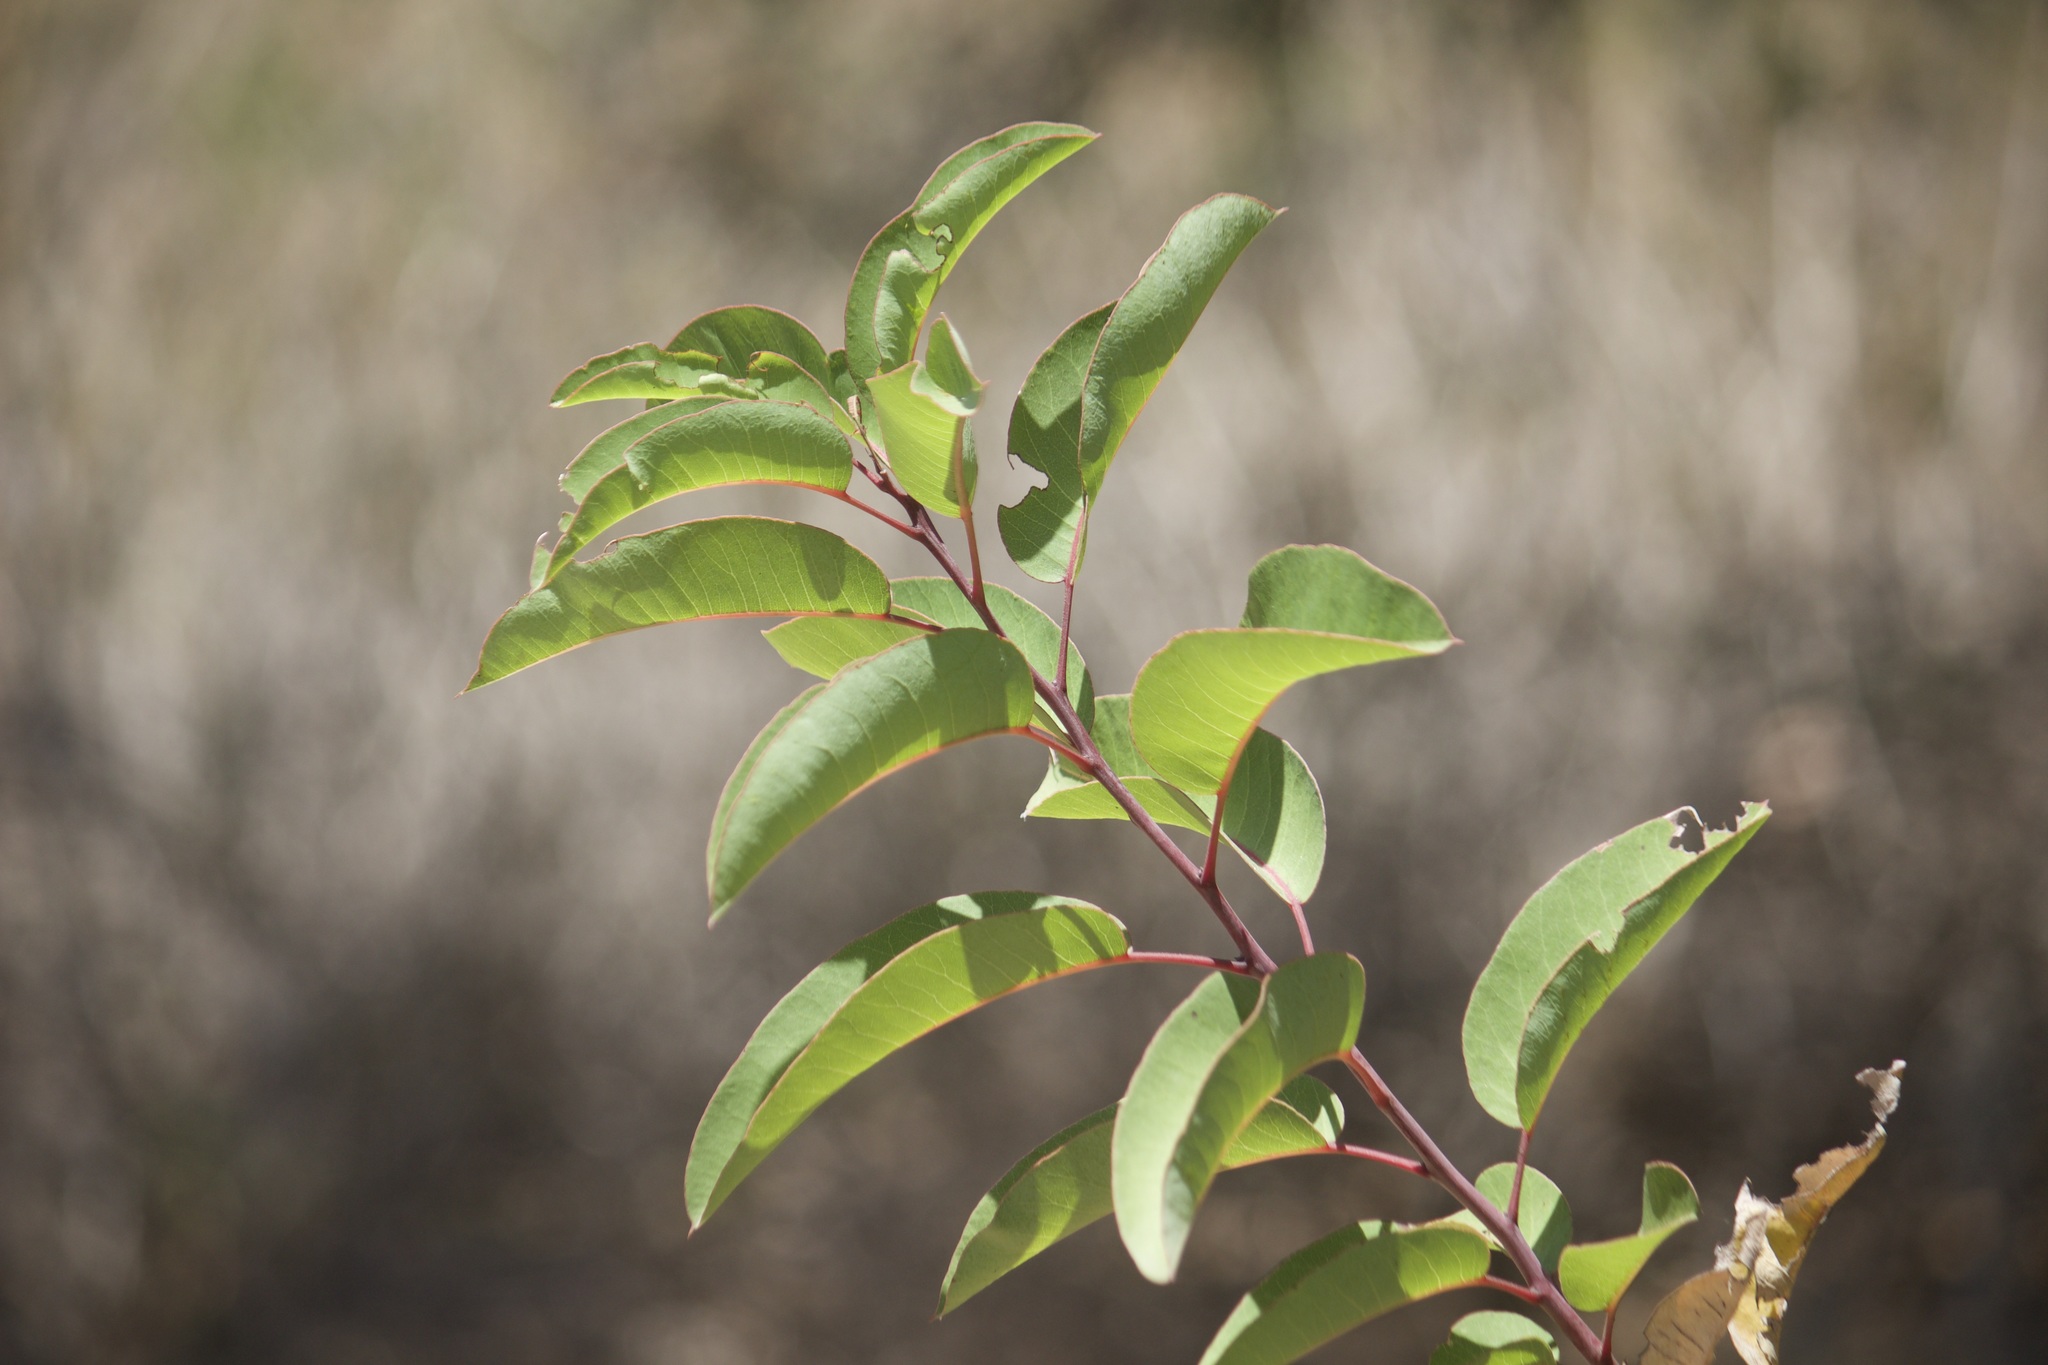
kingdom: Plantae
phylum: Tracheophyta
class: Magnoliopsida
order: Sapindales
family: Anacardiaceae
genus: Malosma
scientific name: Malosma laurina
